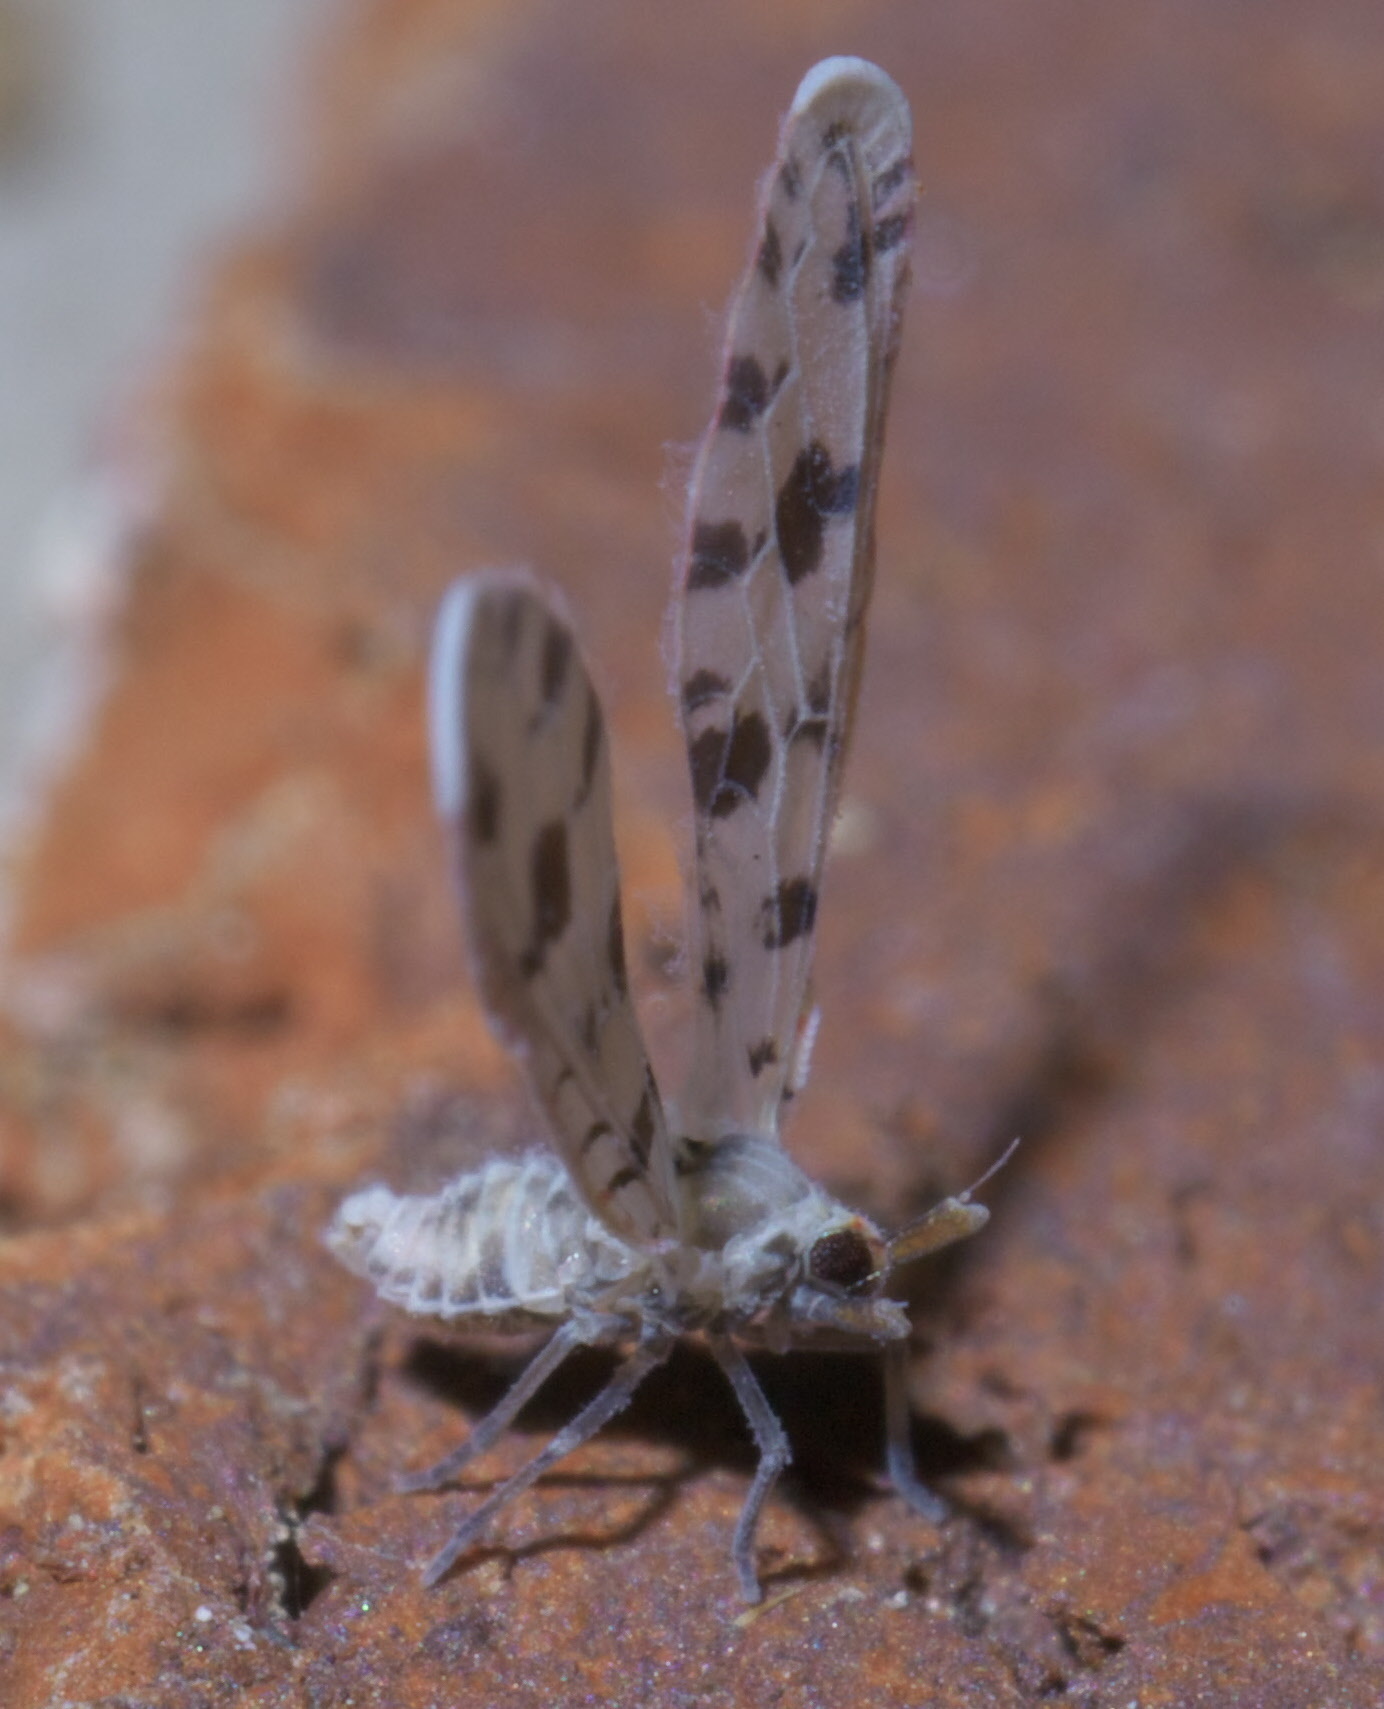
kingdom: Animalia
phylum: Arthropoda
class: Insecta
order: Hemiptera
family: Derbidae
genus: Sikaiana
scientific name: Sikaiana harti
